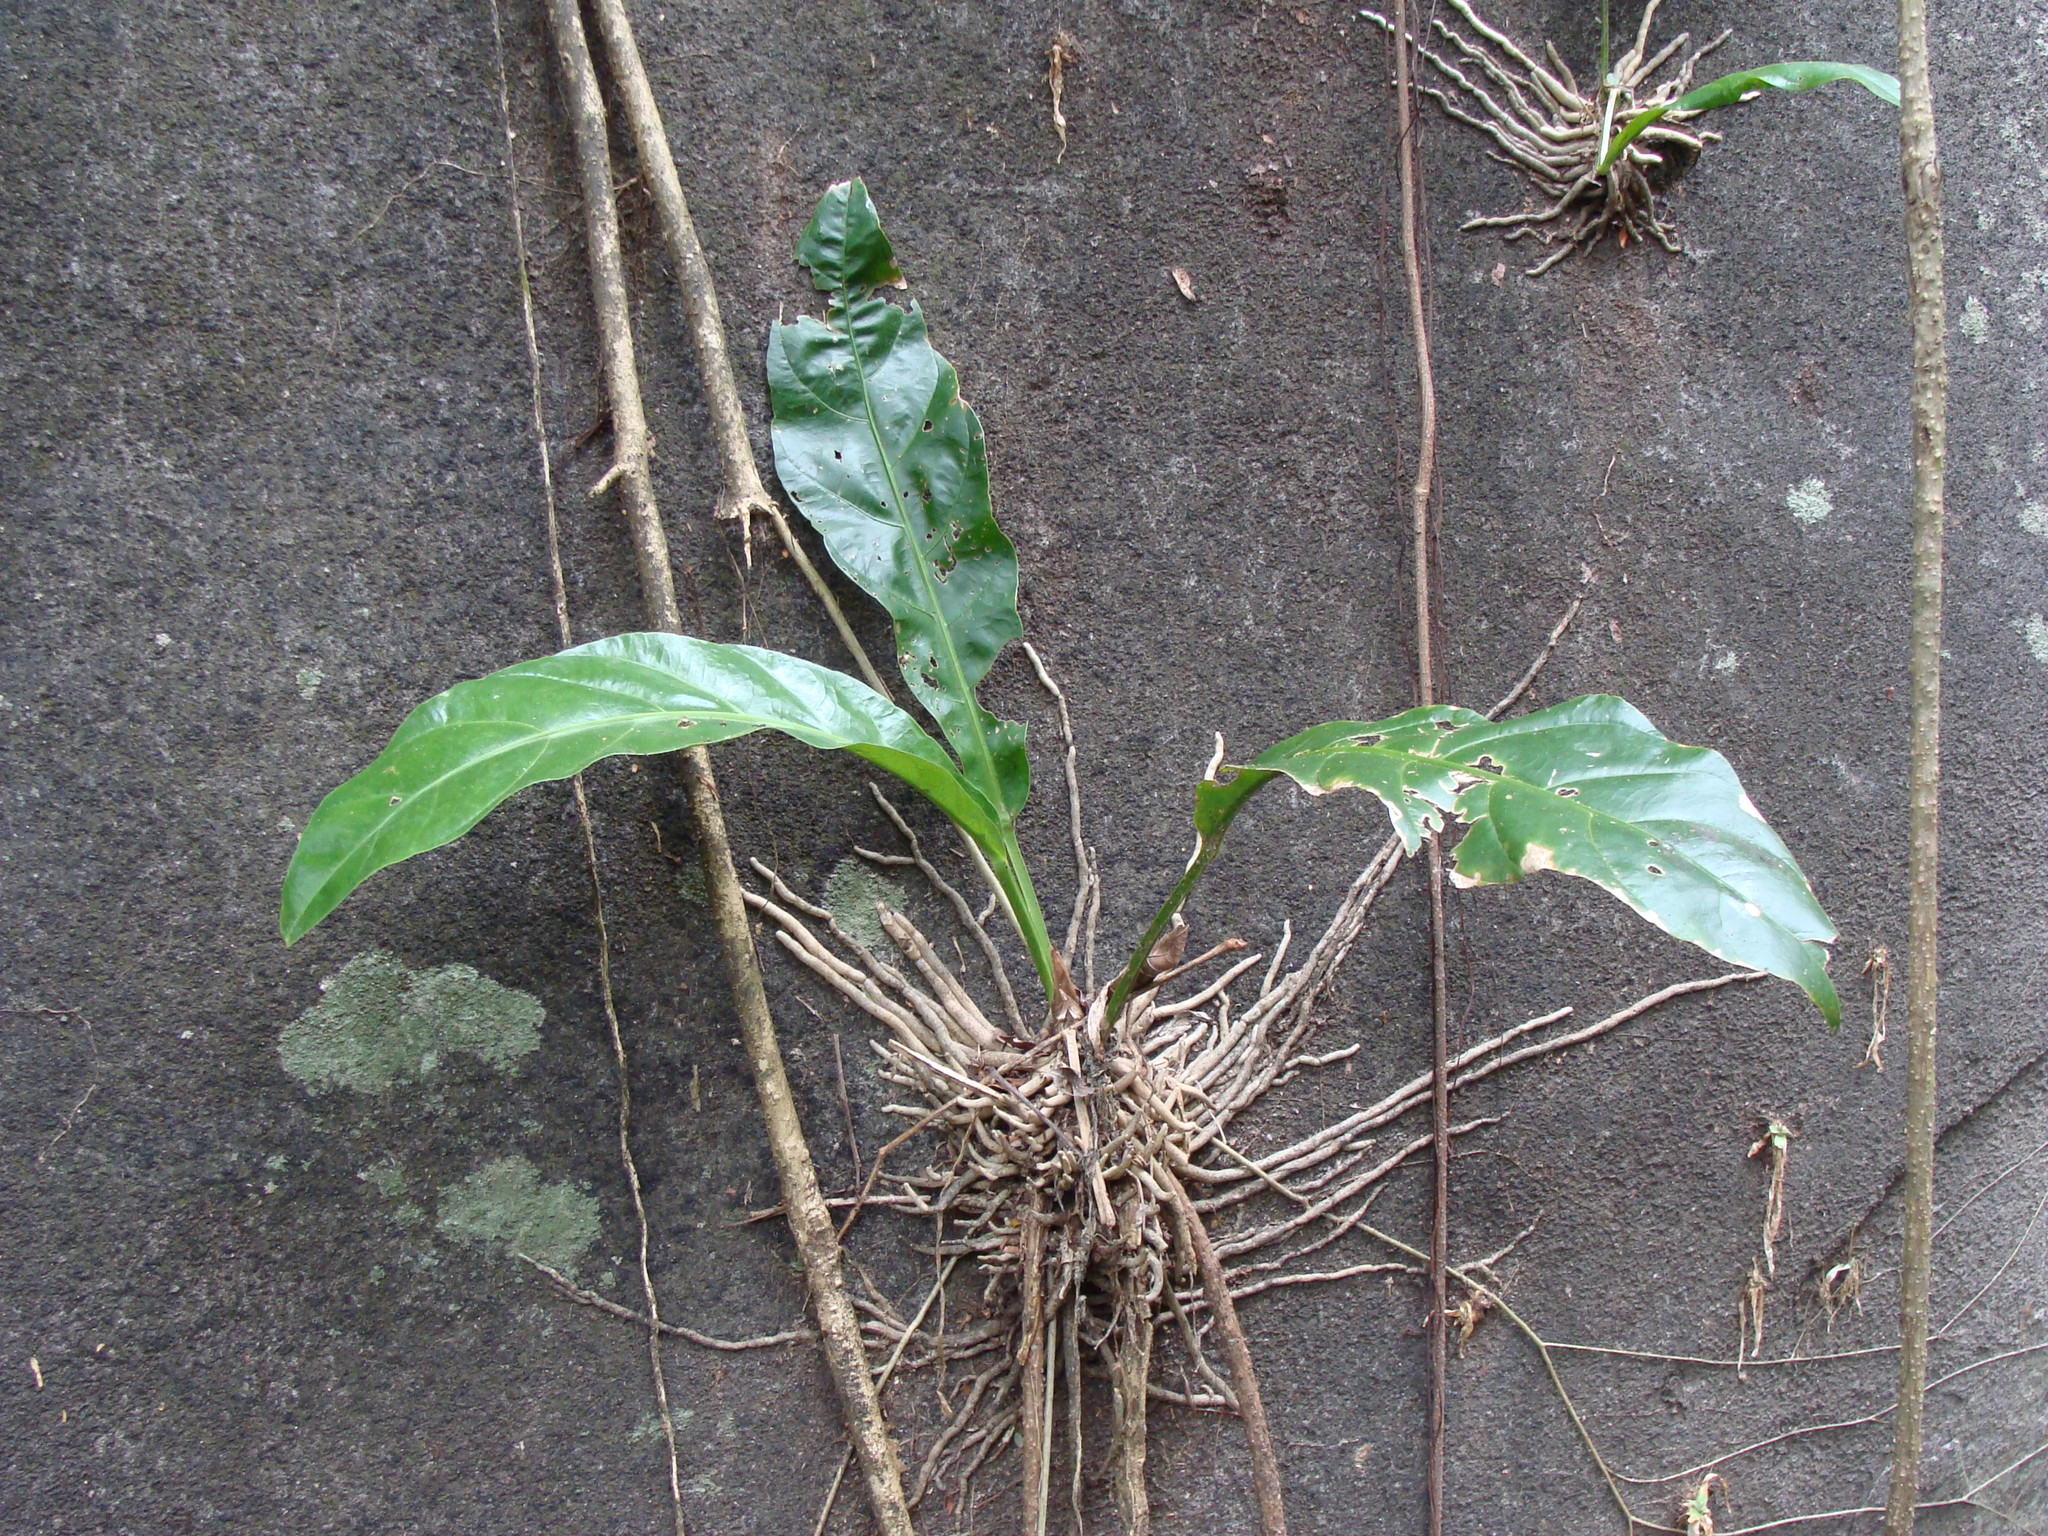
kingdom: Plantae
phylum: Tracheophyta
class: Liliopsida
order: Alismatales
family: Araceae
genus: Anthurium
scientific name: Anthurium salvinii
